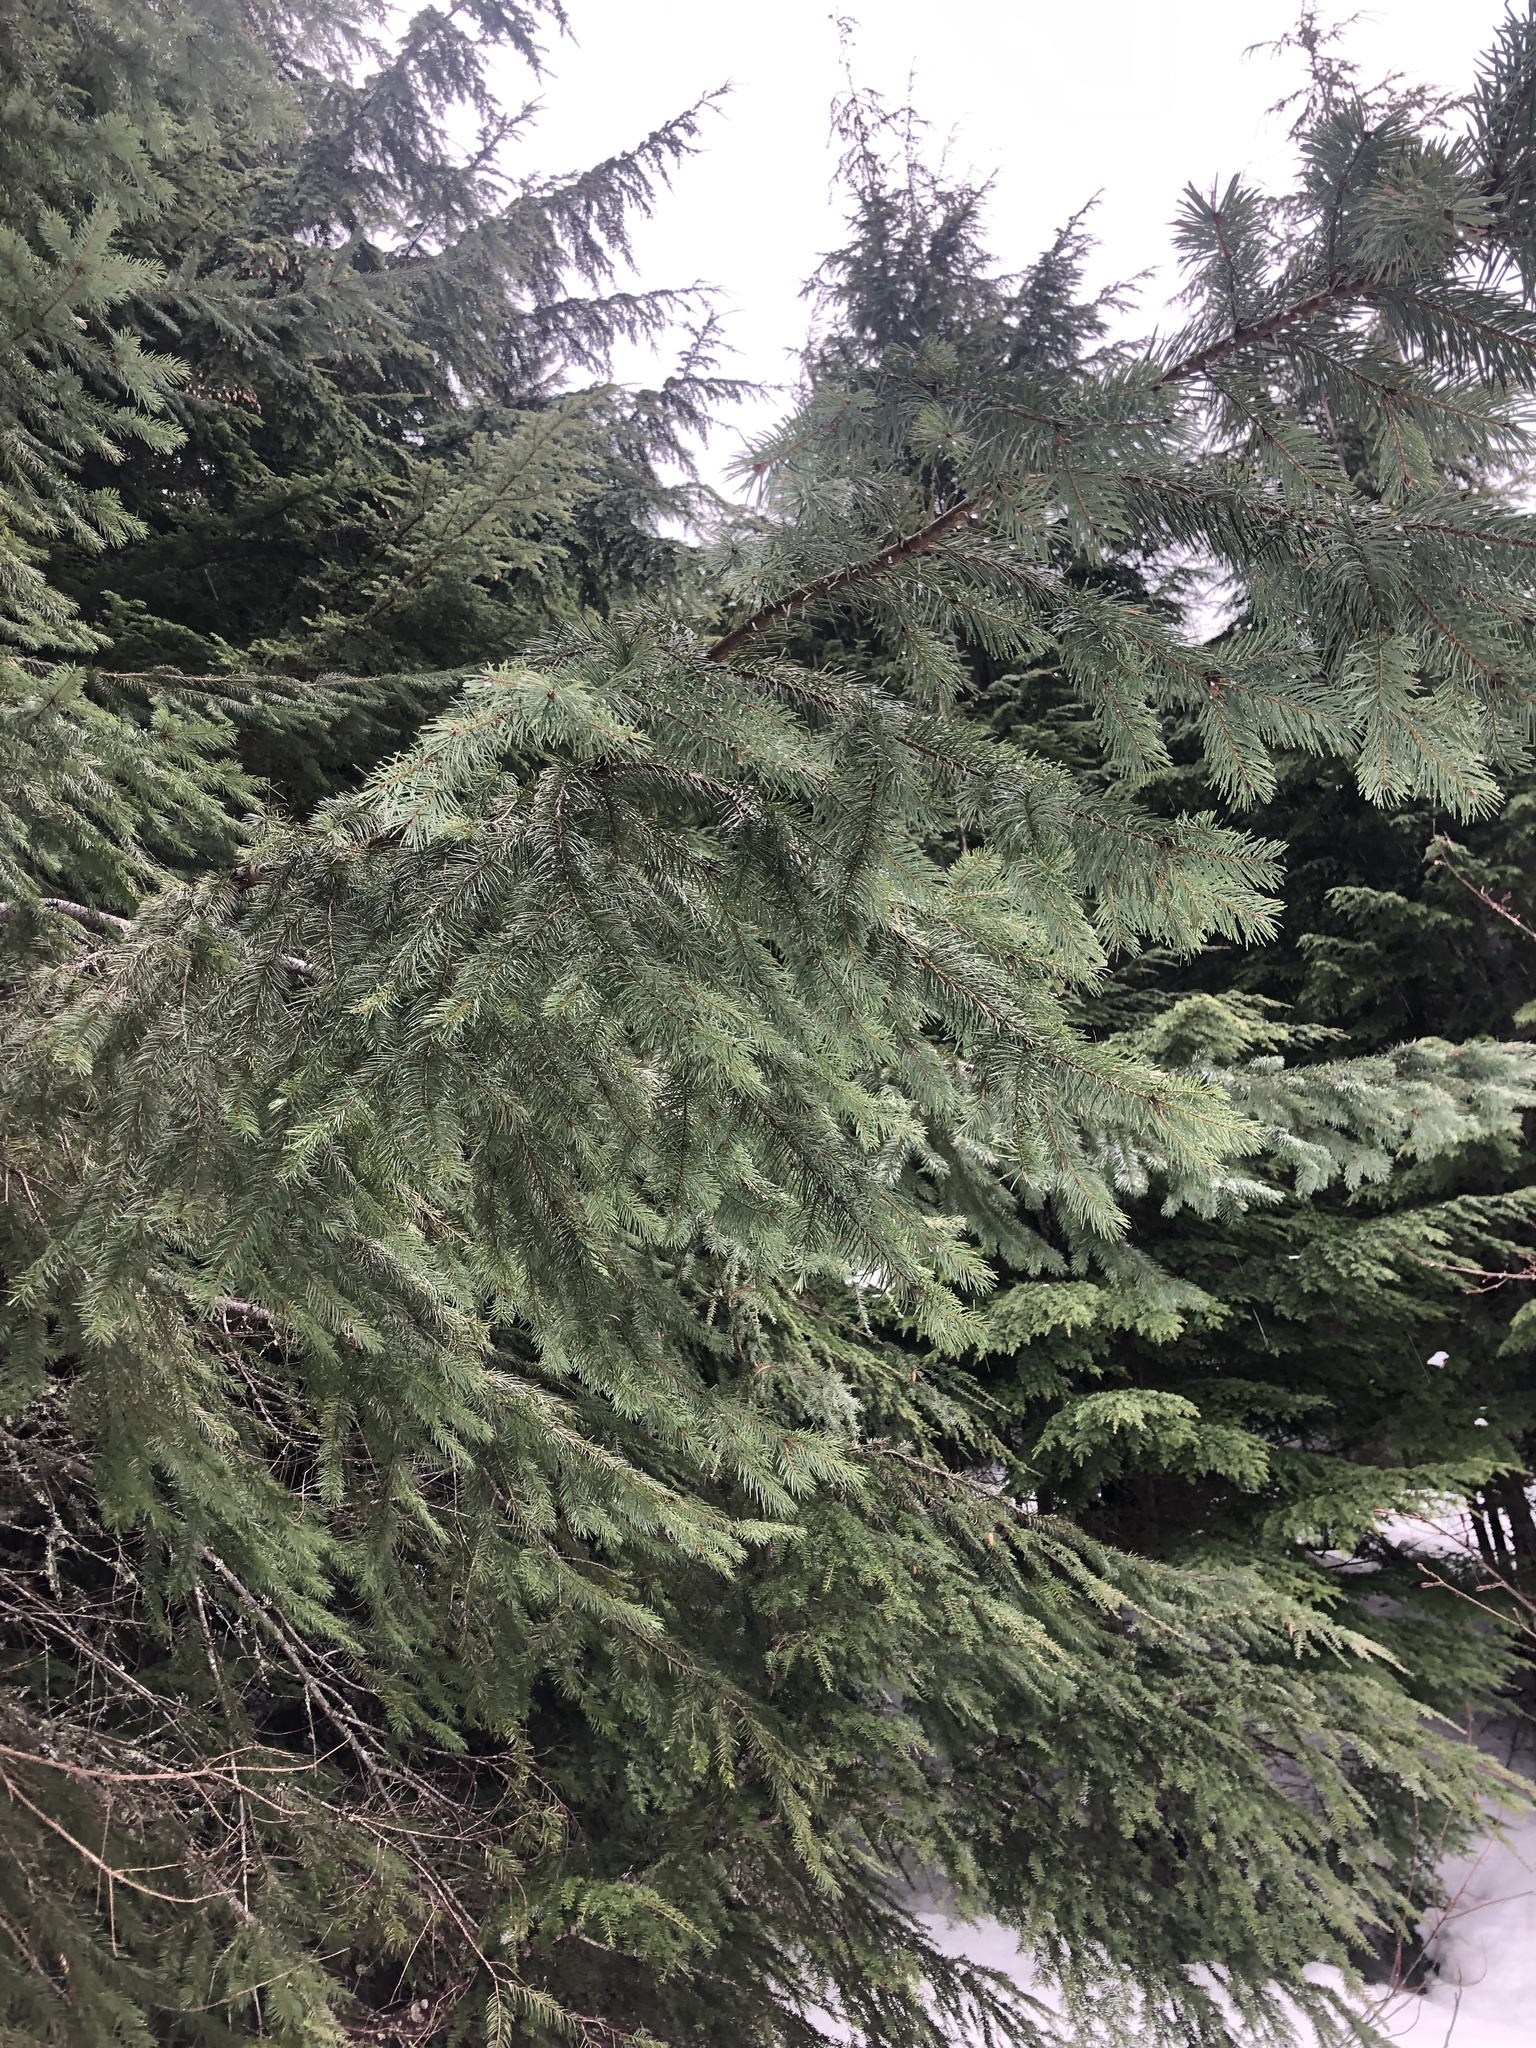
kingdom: Plantae
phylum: Tracheophyta
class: Pinopsida
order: Pinales
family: Pinaceae
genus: Pseudotsuga
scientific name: Pseudotsuga menziesii
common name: Douglas fir
